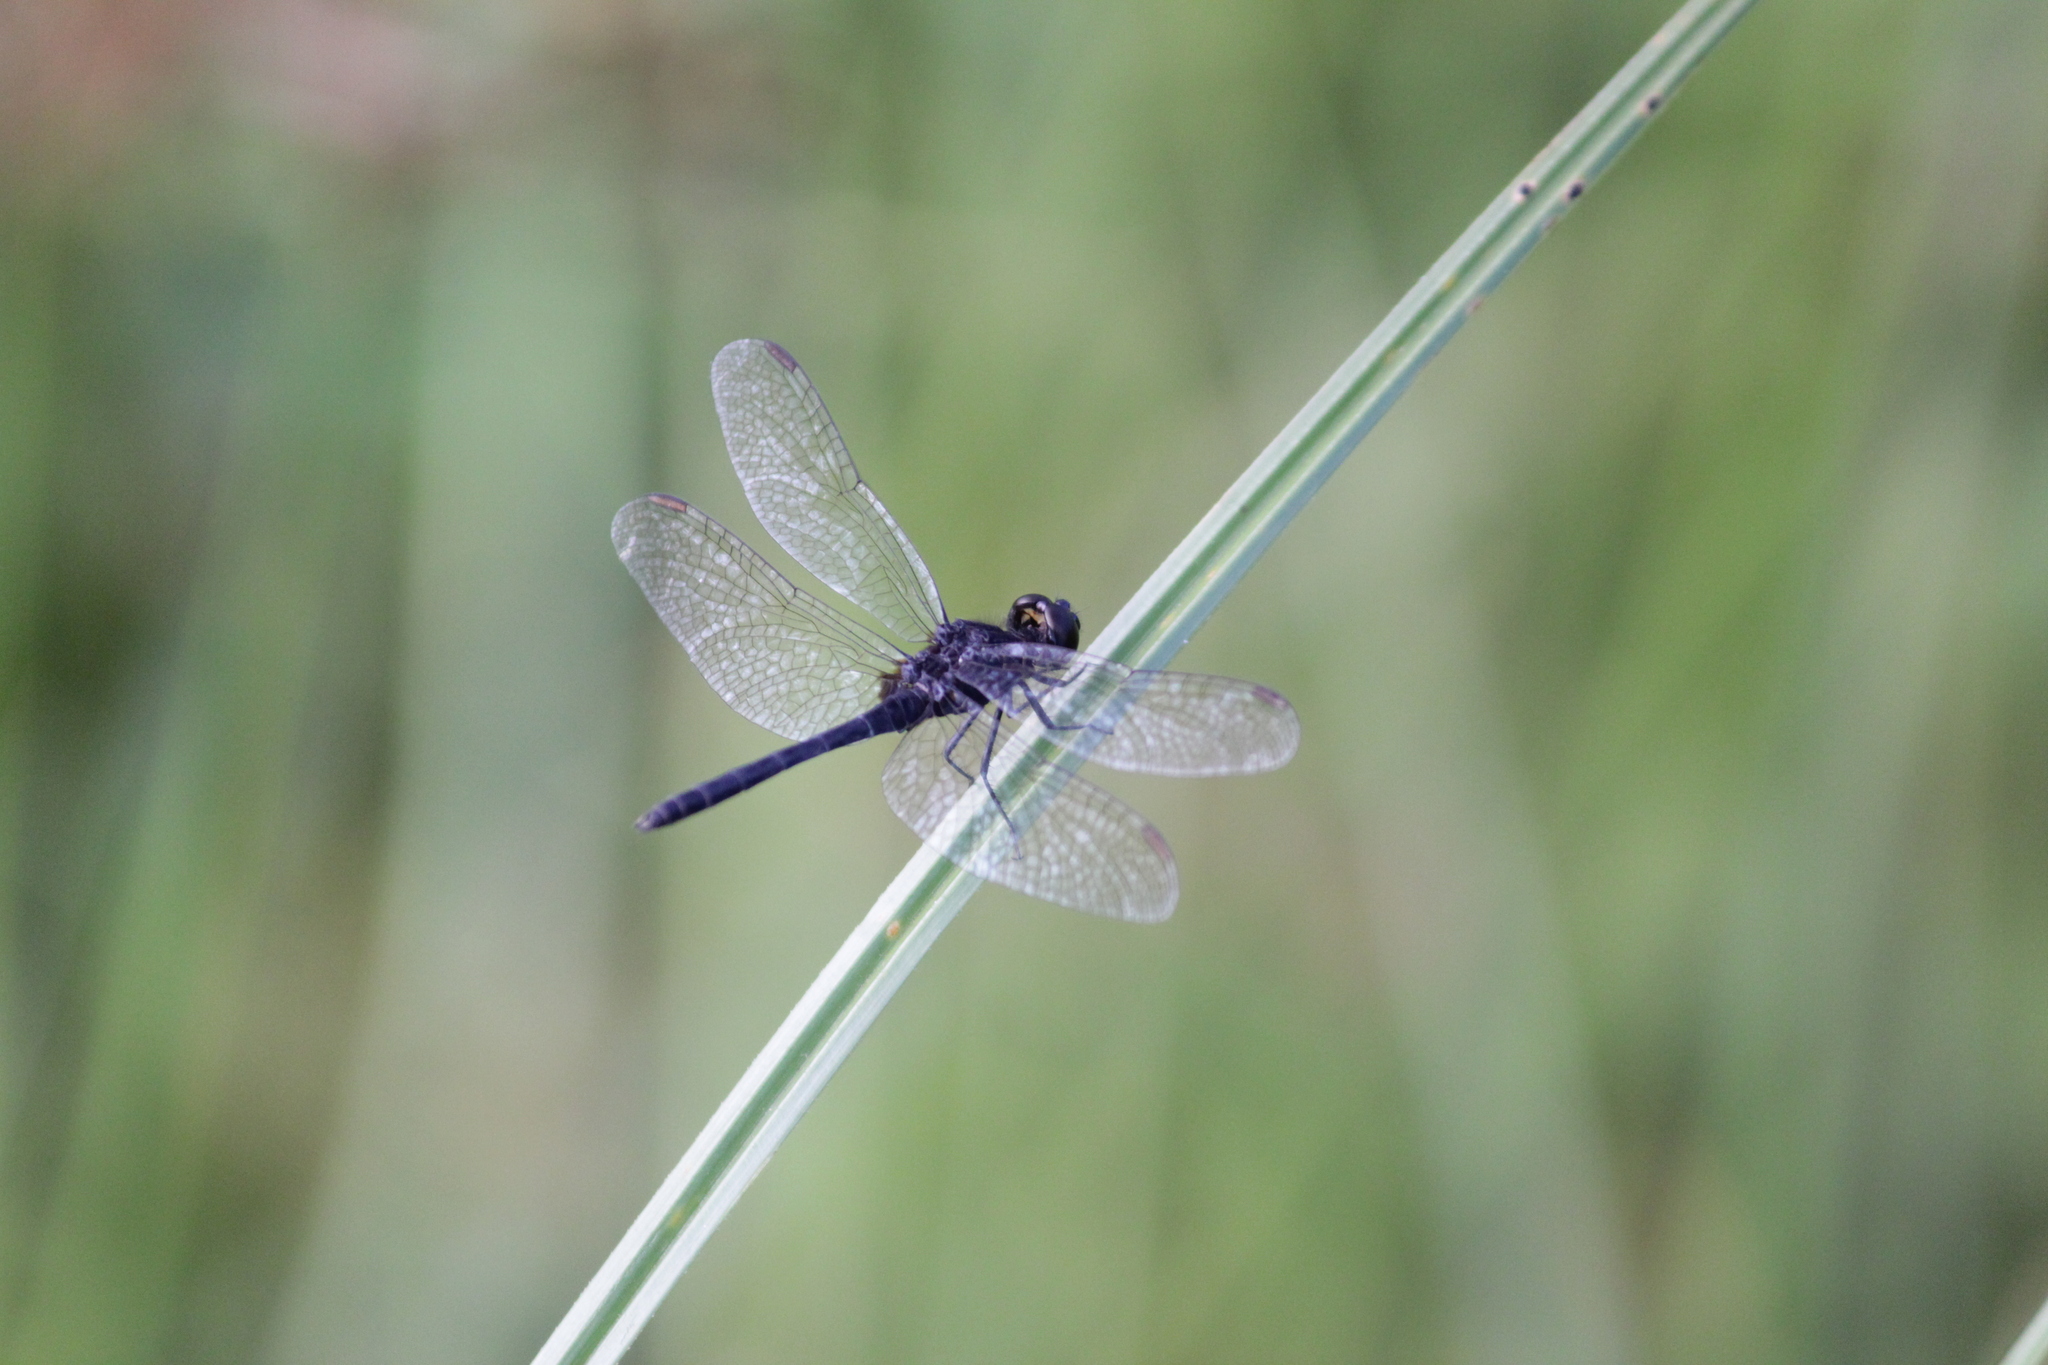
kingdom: Animalia
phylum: Arthropoda
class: Insecta
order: Odonata
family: Libellulidae
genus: Diplacodes
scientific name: Diplacodes lefebvrii
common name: Black percher
